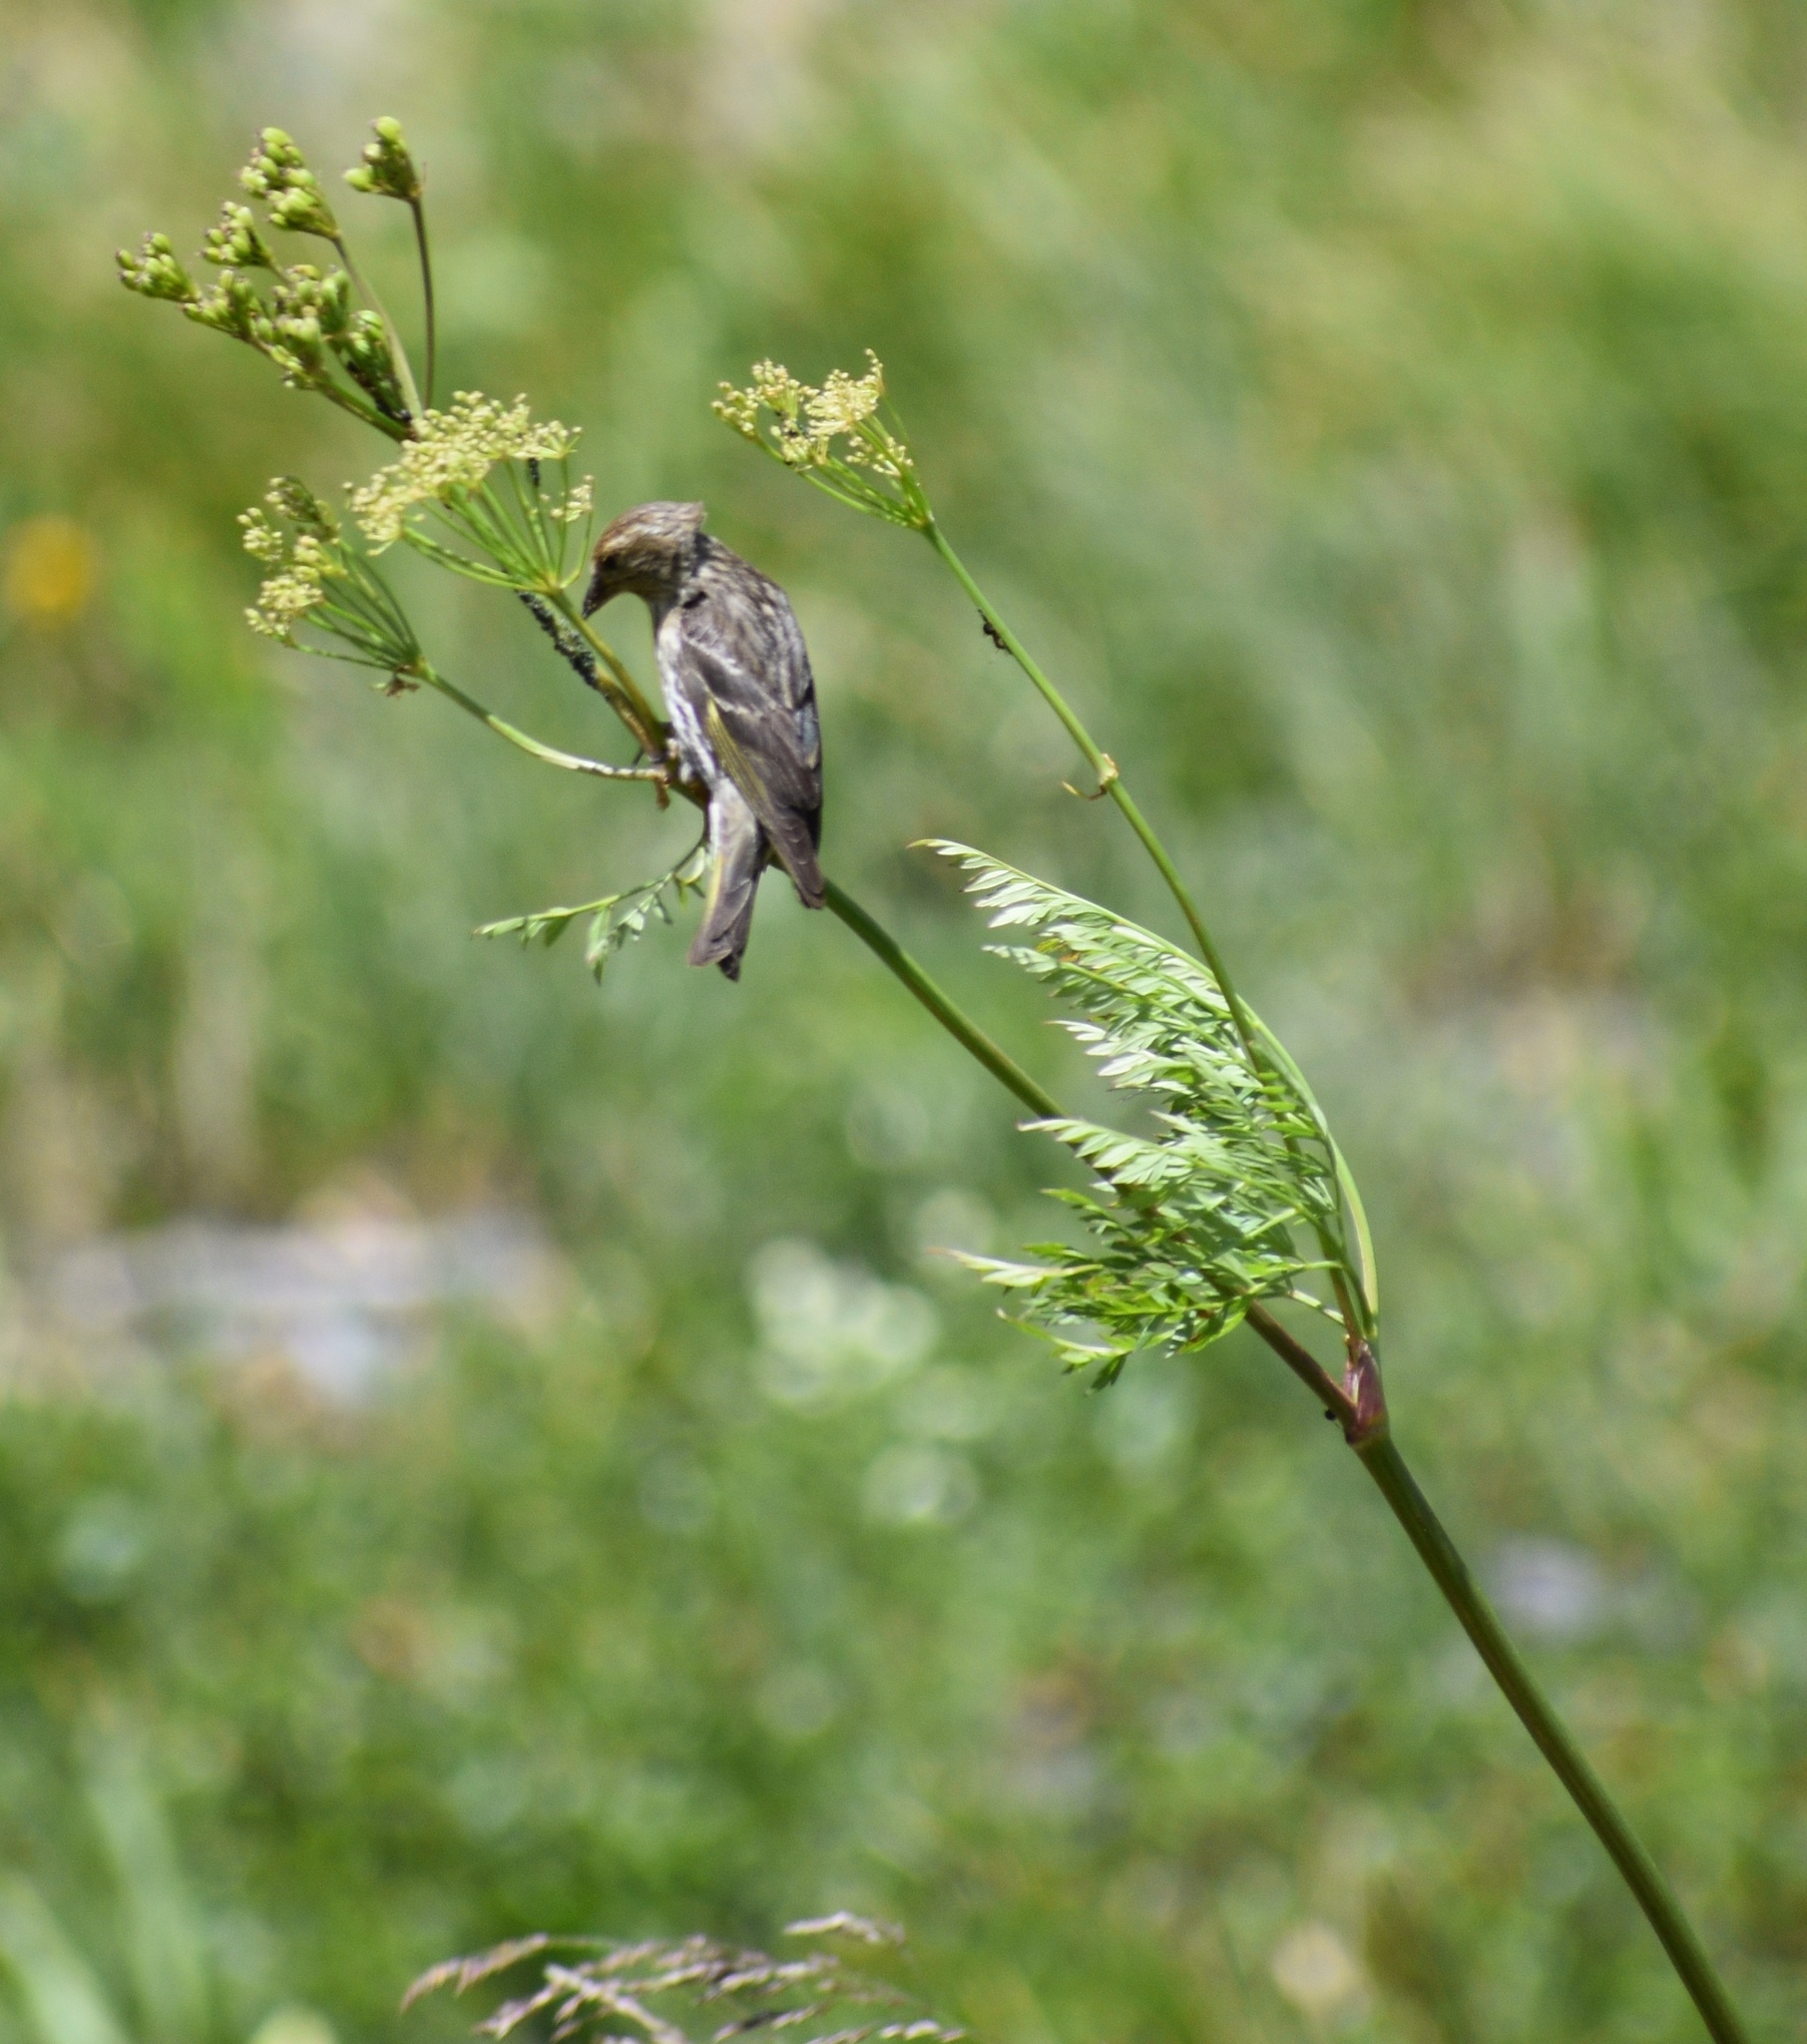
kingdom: Animalia
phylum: Chordata
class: Aves
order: Passeriformes
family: Fringillidae
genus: Spinus
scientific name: Spinus pinus
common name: Pine siskin
